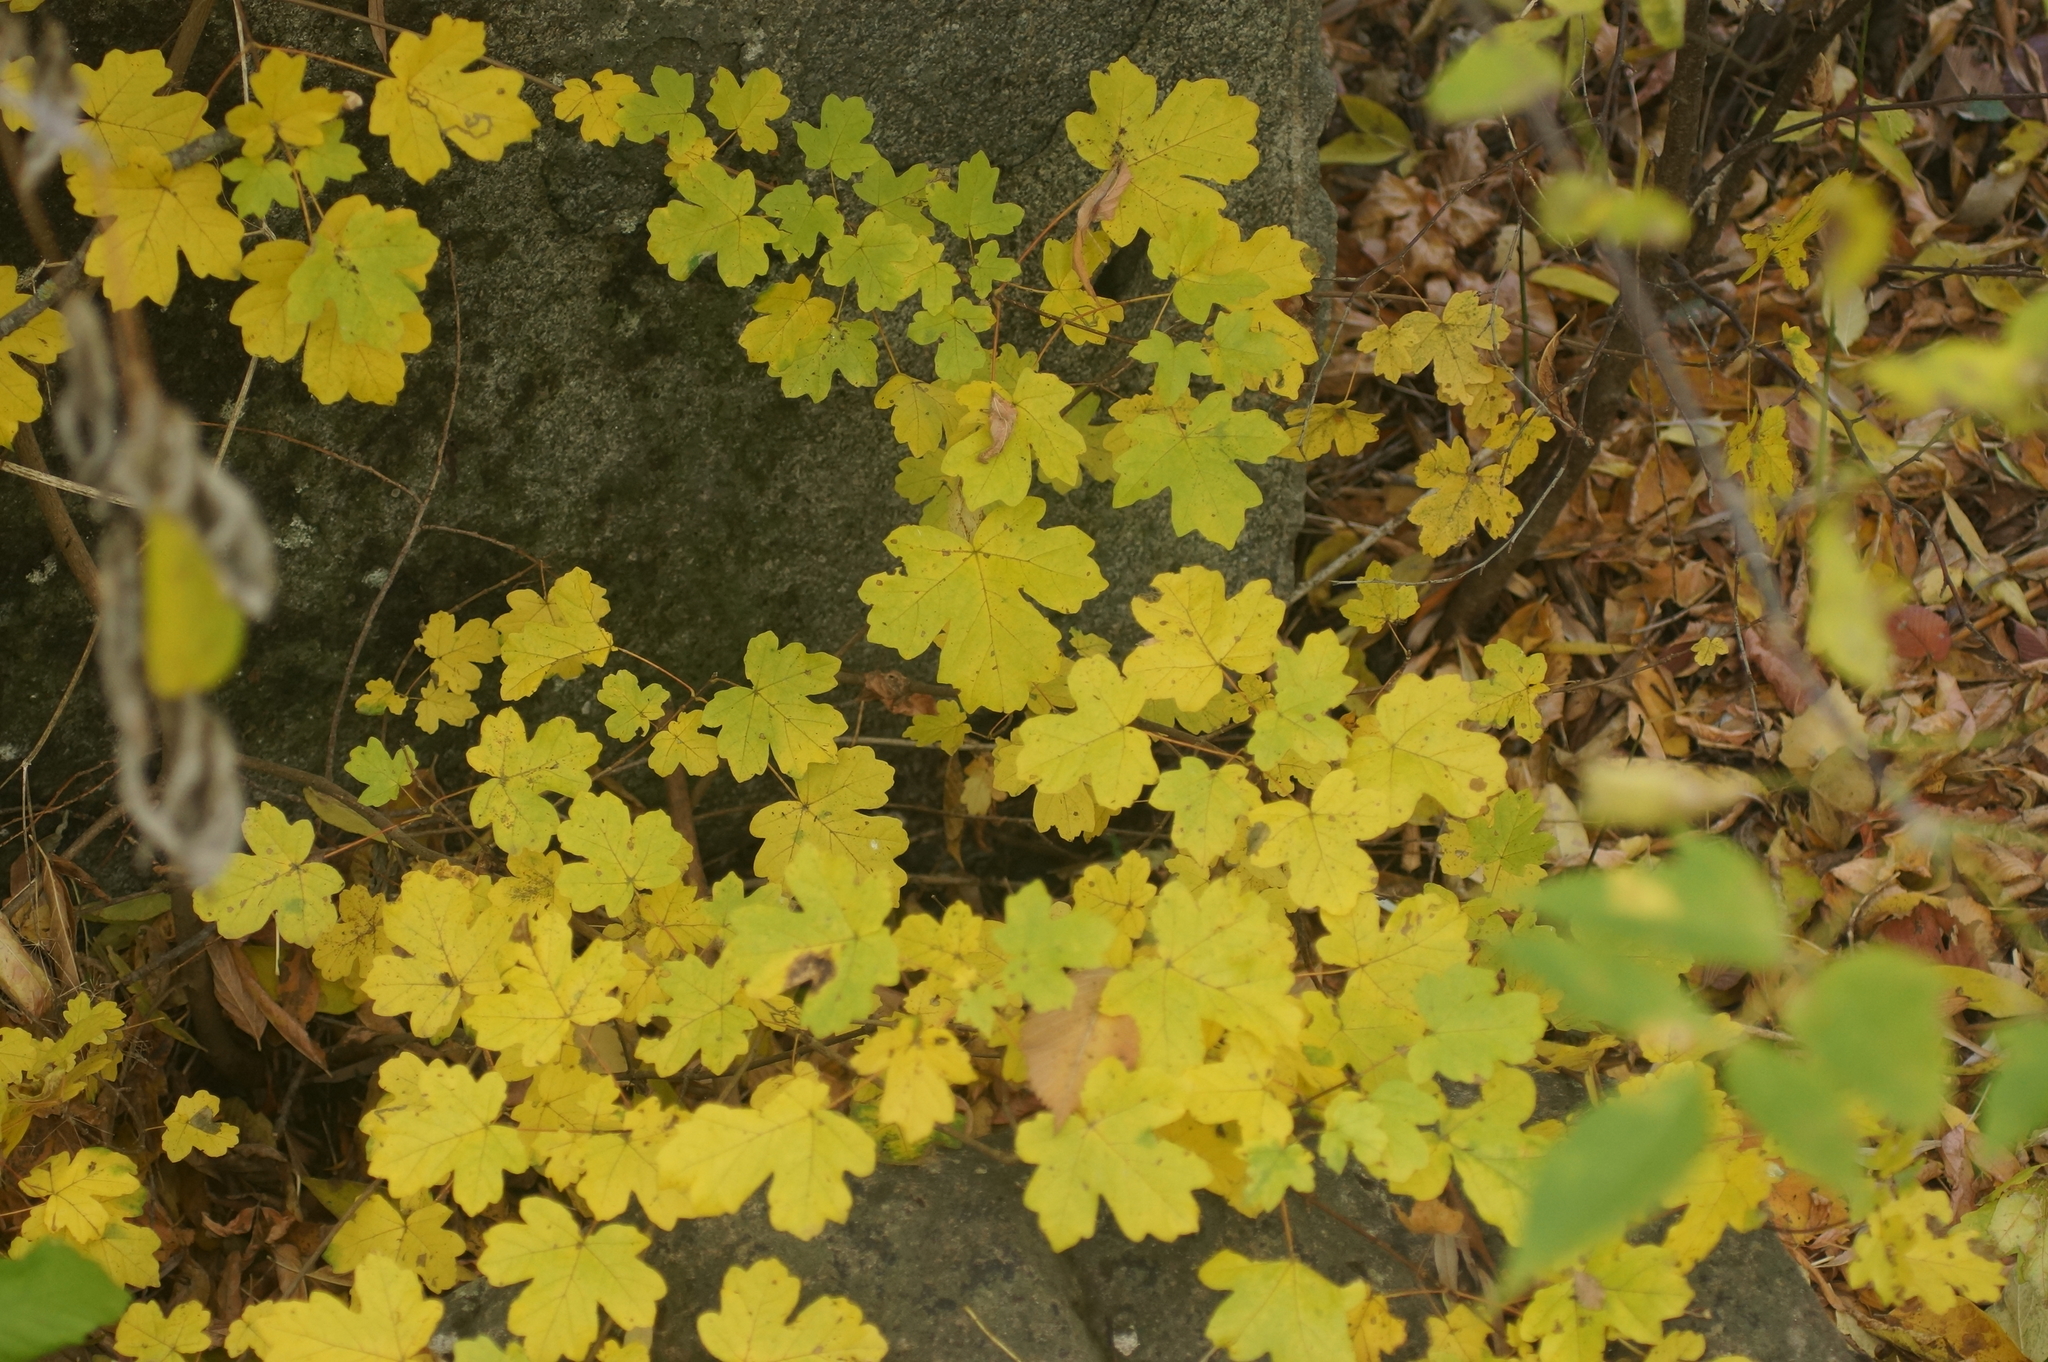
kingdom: Plantae
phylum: Tracheophyta
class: Magnoliopsida
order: Sapindales
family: Sapindaceae
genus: Acer
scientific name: Acer campestre
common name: Field maple
